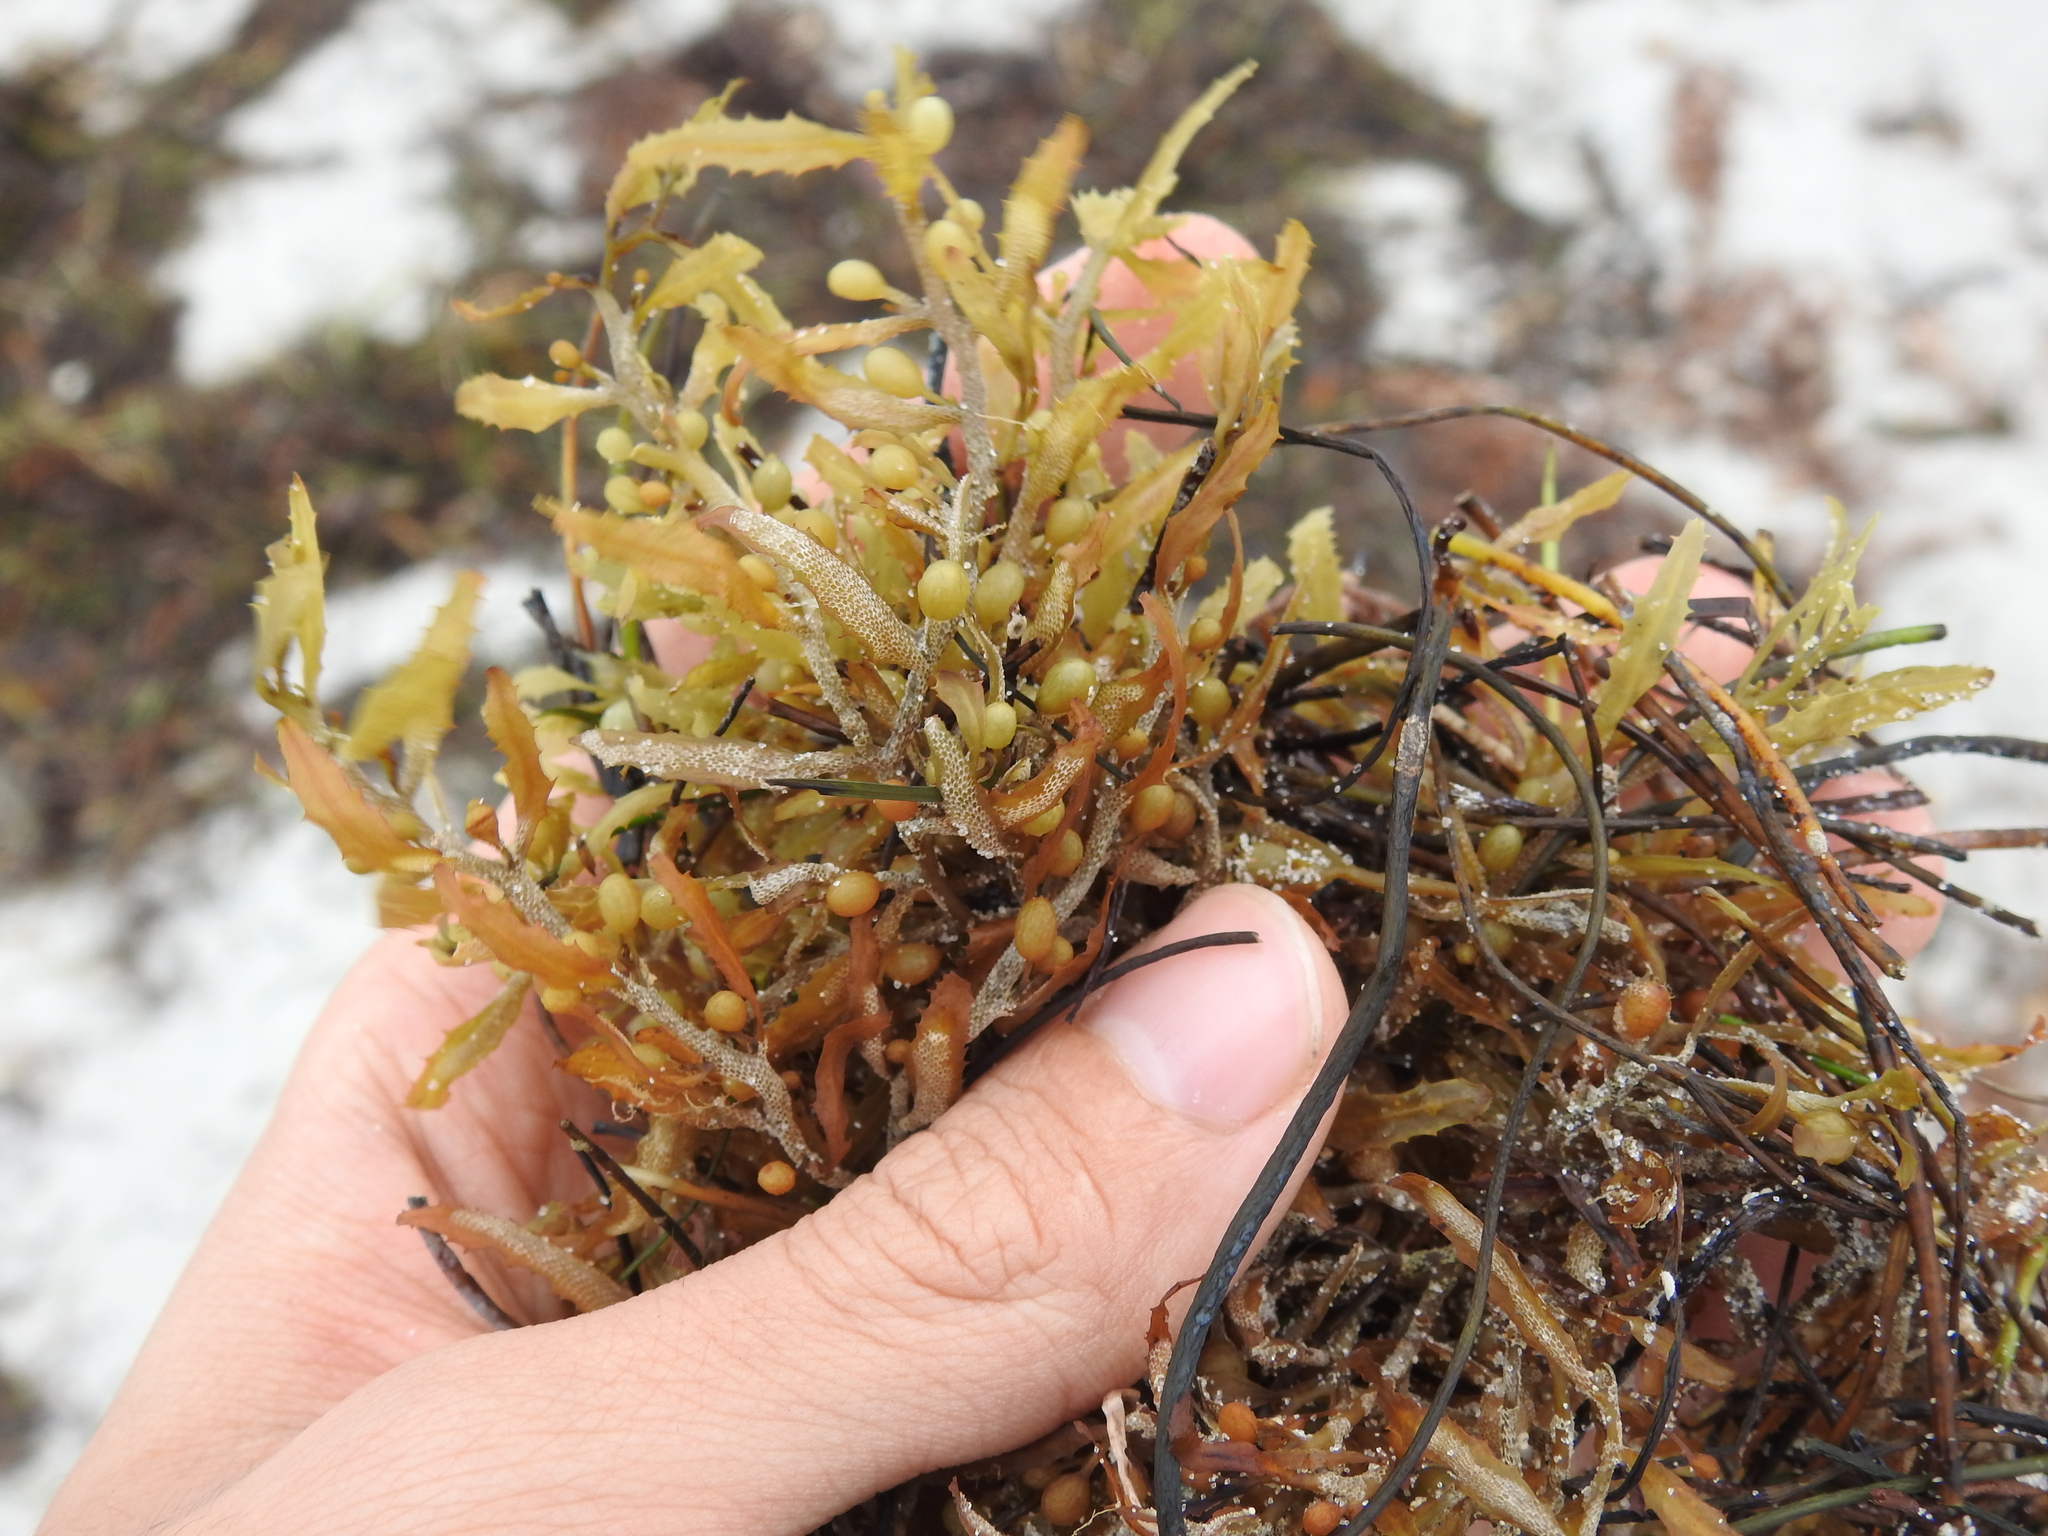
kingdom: Chromista
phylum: Ochrophyta
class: Phaeophyceae
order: Fucales
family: Sargassaceae
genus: Sargassum
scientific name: Sargassum fluitans
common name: Sargassum seaweed
